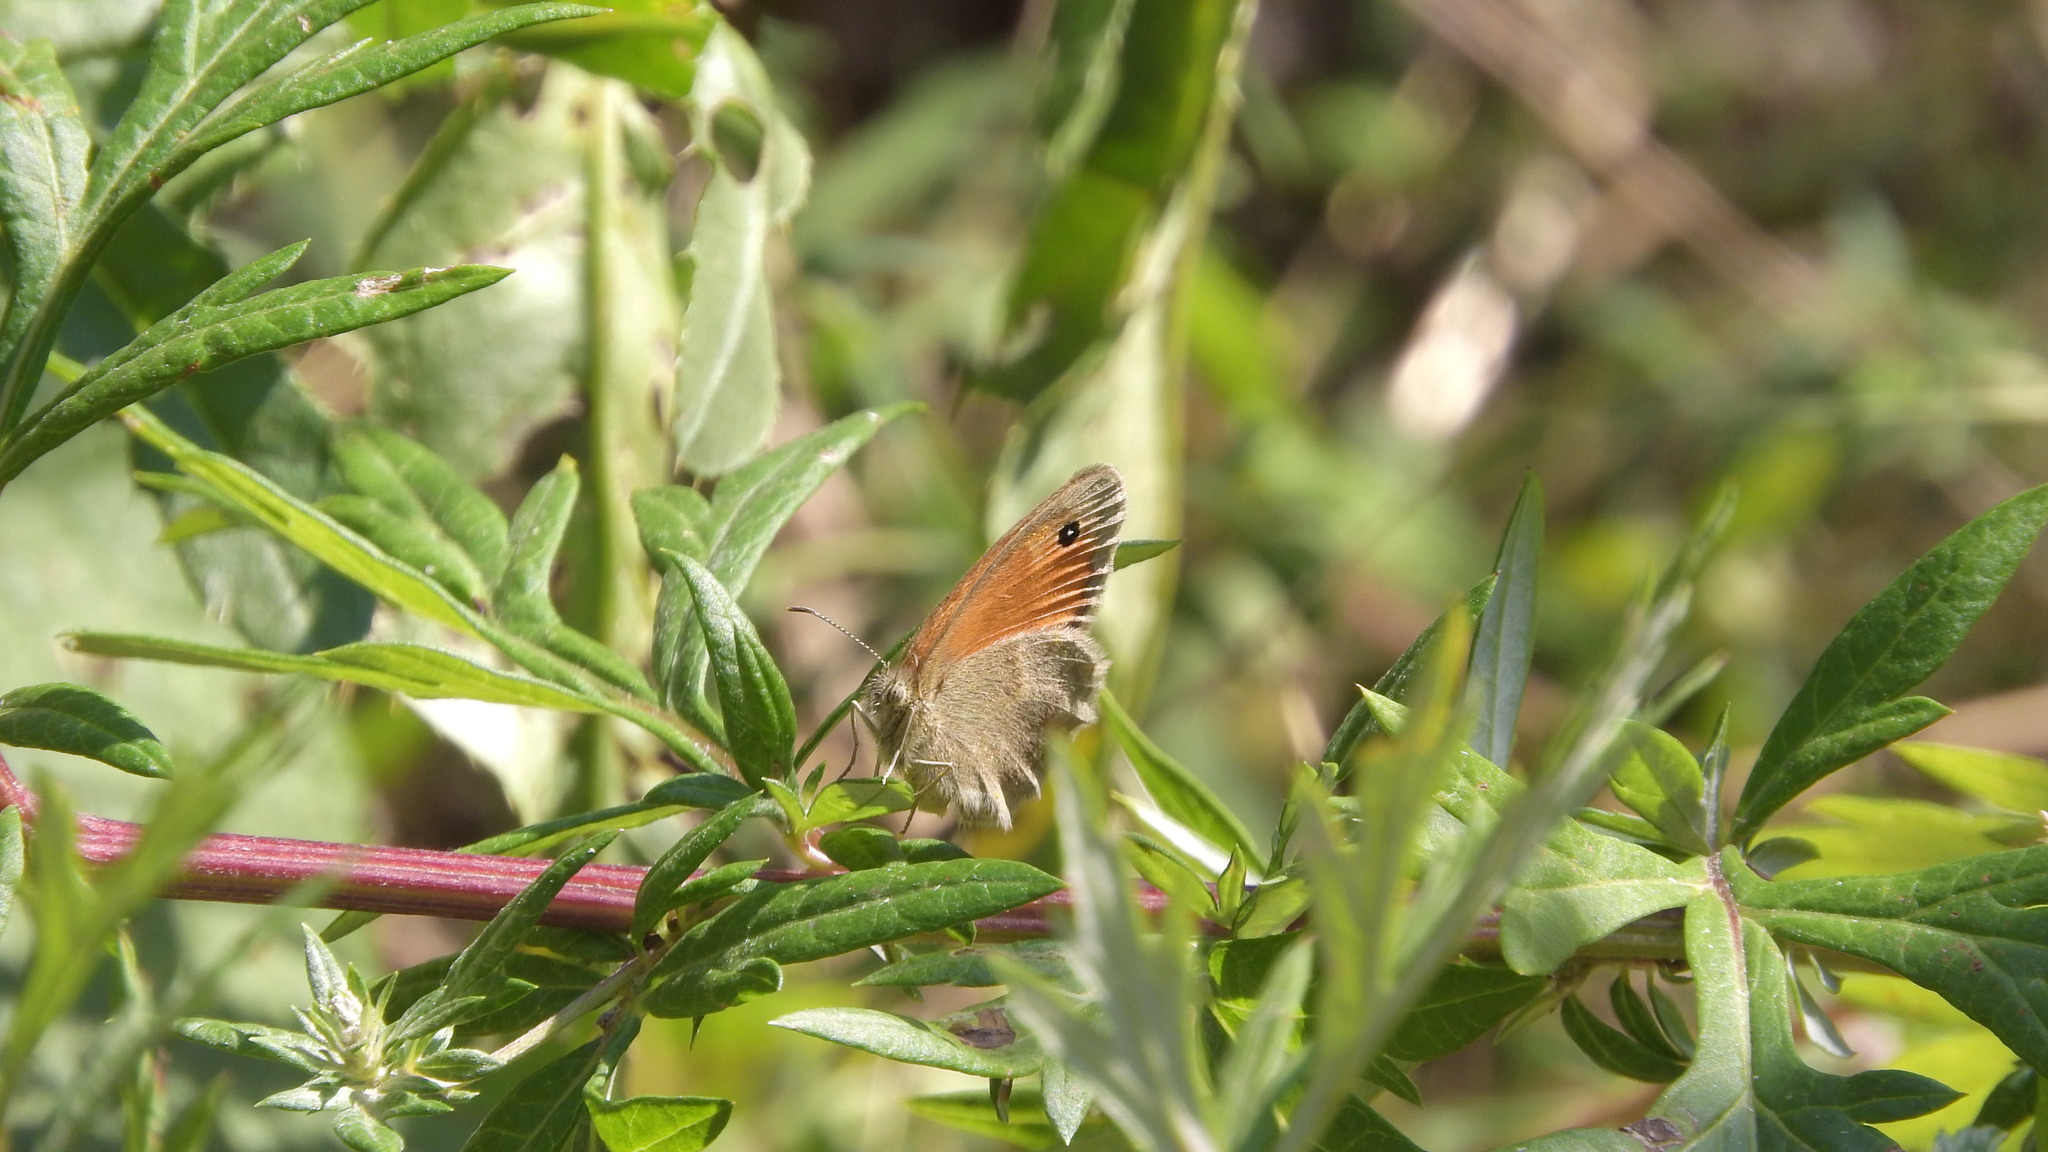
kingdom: Animalia
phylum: Arthropoda
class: Insecta
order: Lepidoptera
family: Nymphalidae
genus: Coenonympha
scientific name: Coenonympha pamphilus
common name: Small heath
